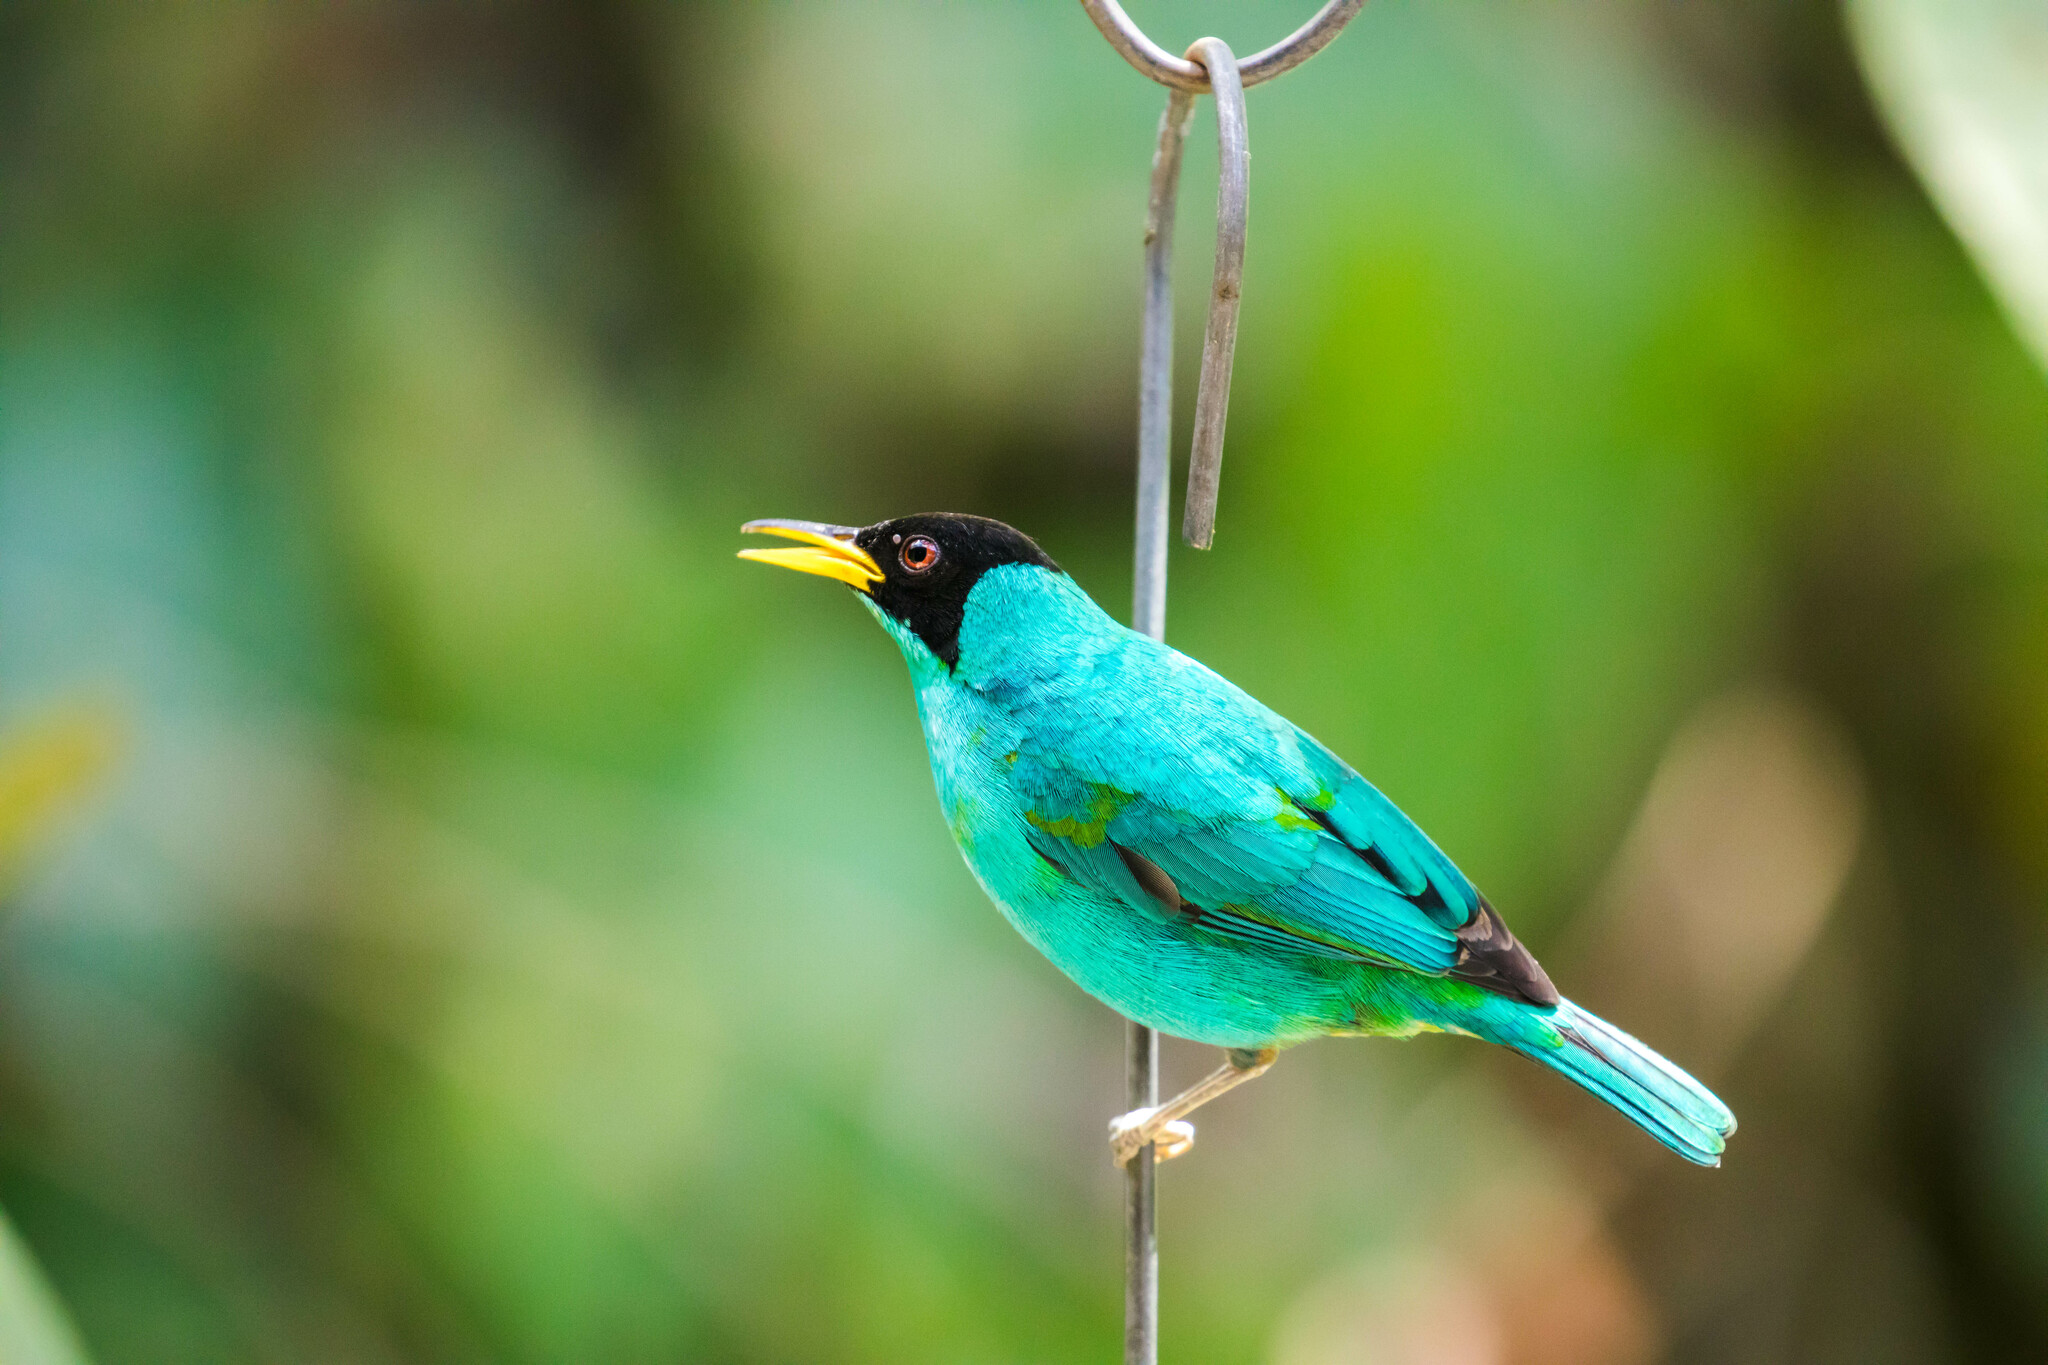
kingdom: Animalia
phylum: Chordata
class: Aves
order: Passeriformes
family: Thraupidae
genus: Chlorophanes
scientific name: Chlorophanes spiza
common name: Green honeycreeper
